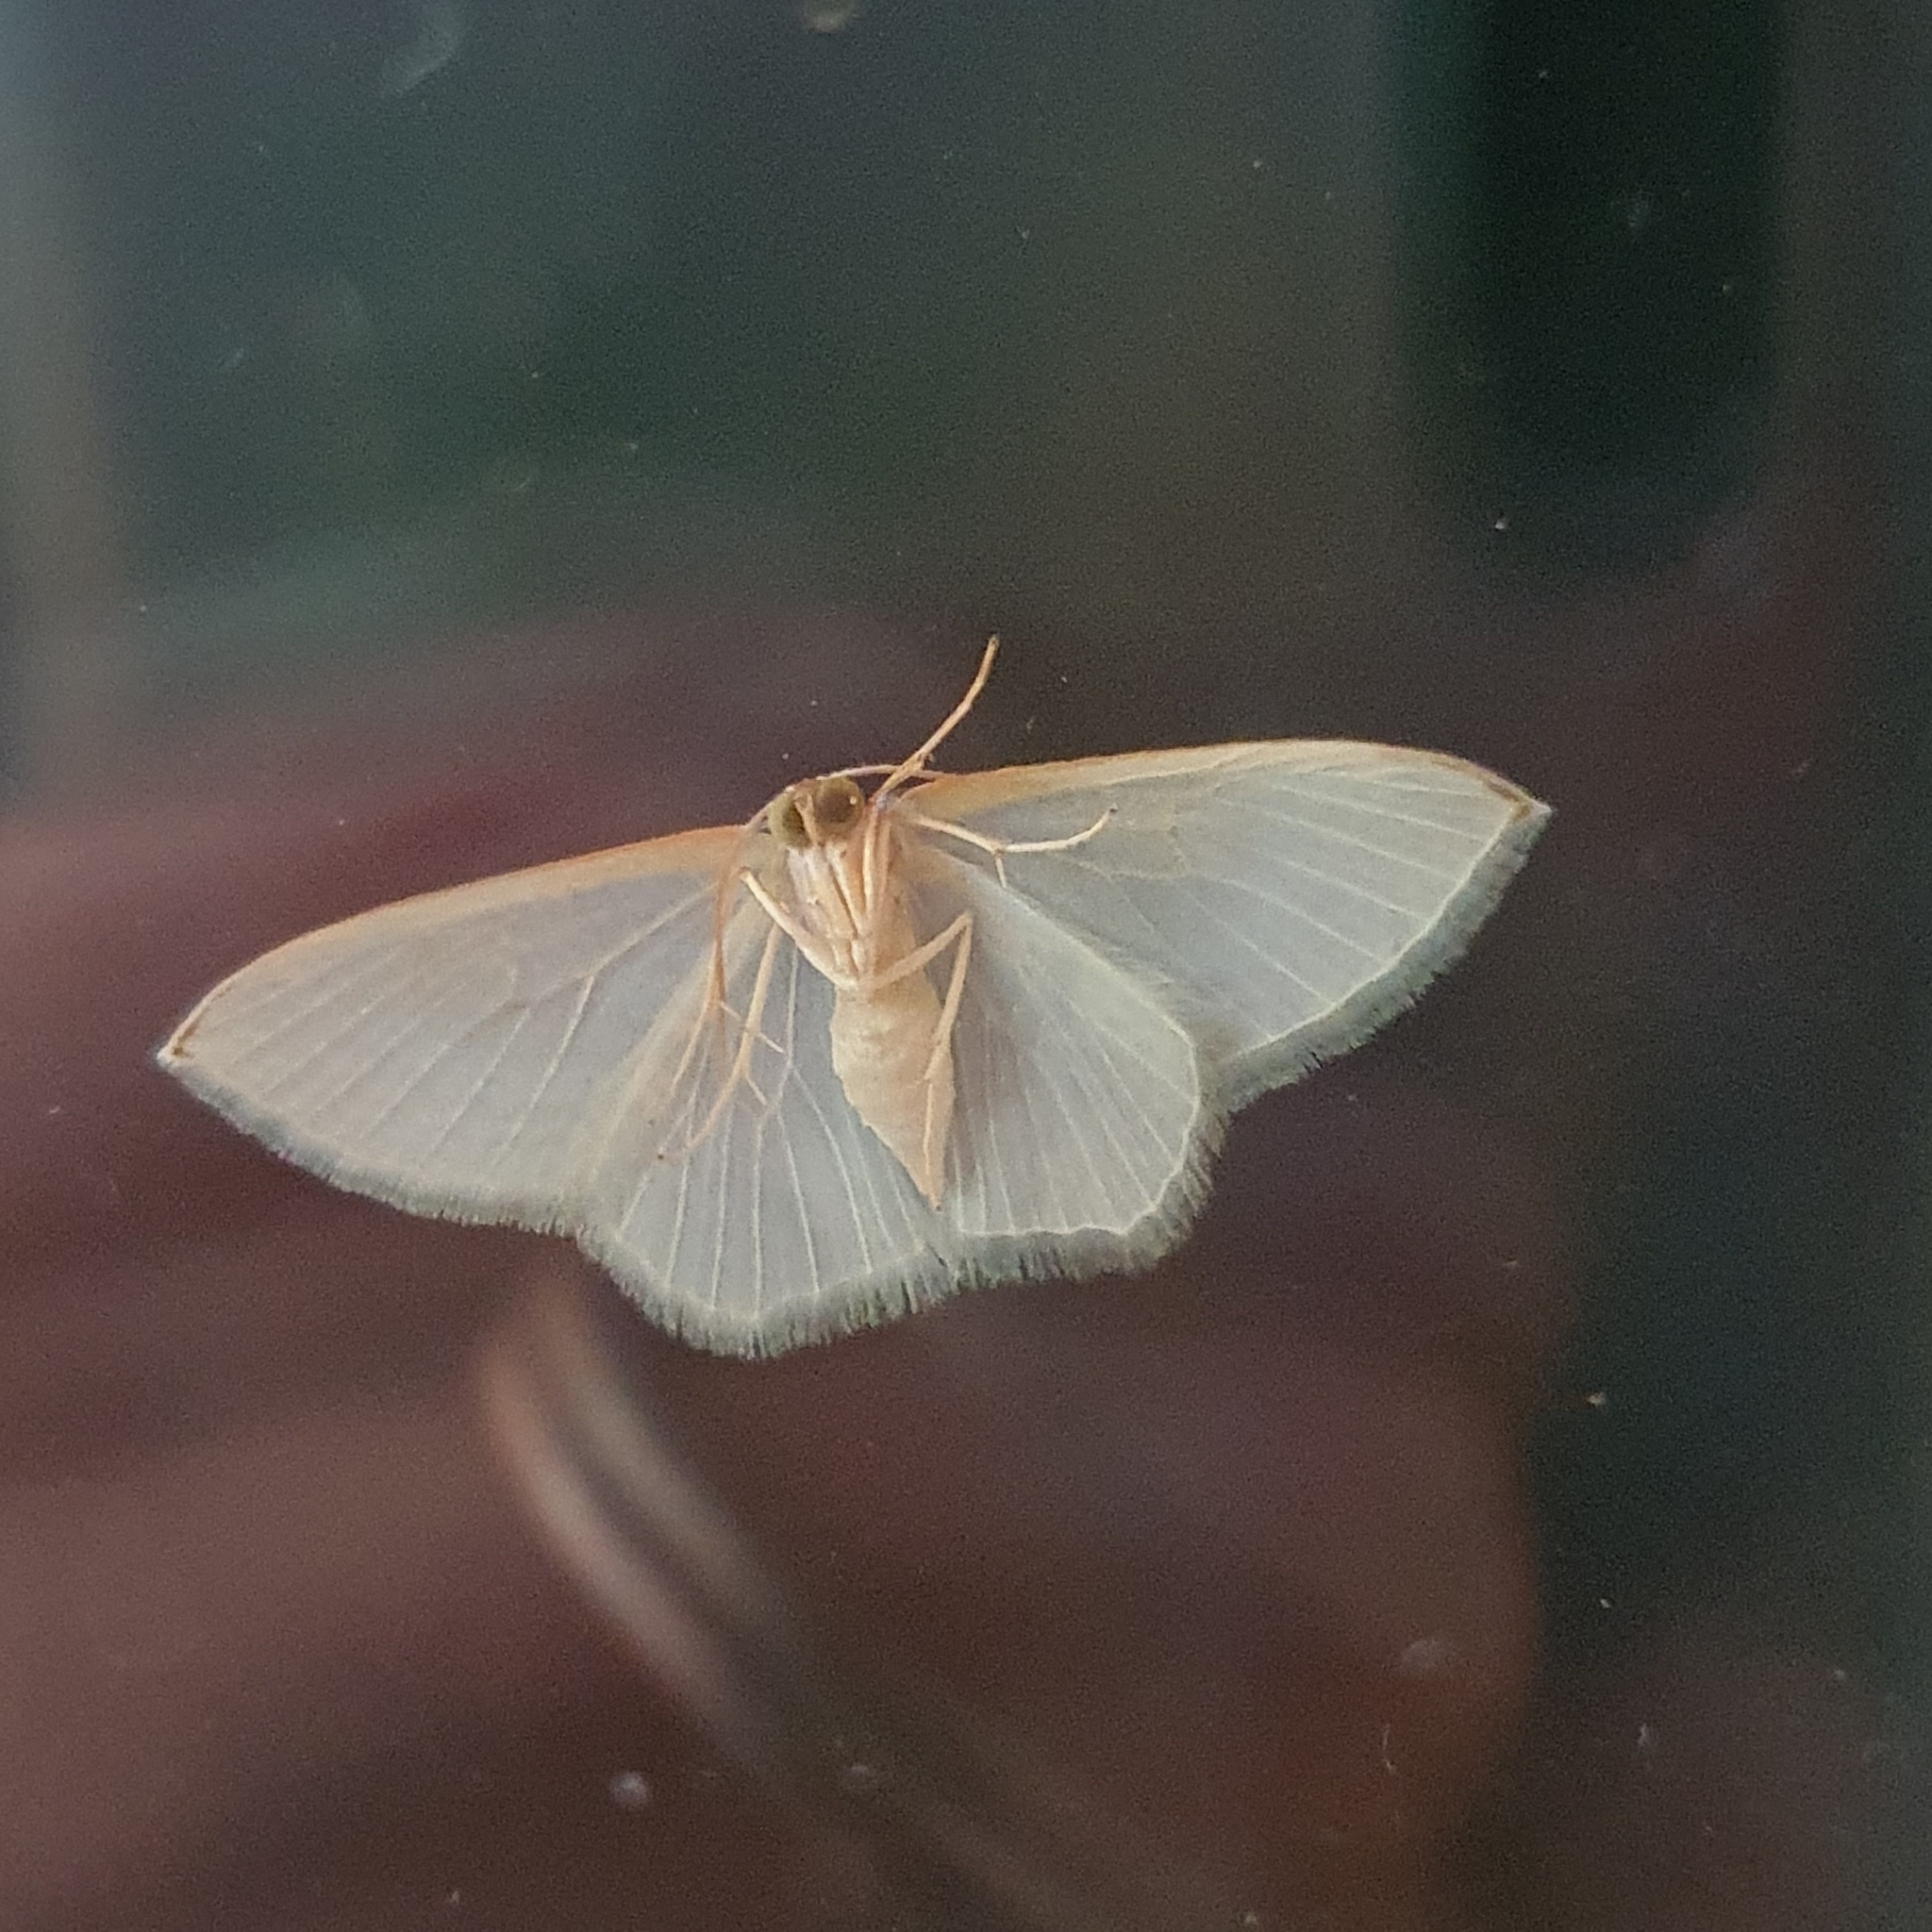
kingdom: Animalia
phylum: Arthropoda
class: Insecta
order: Lepidoptera
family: Geometridae
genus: Poecilasthena
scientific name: Poecilasthena thalassias
